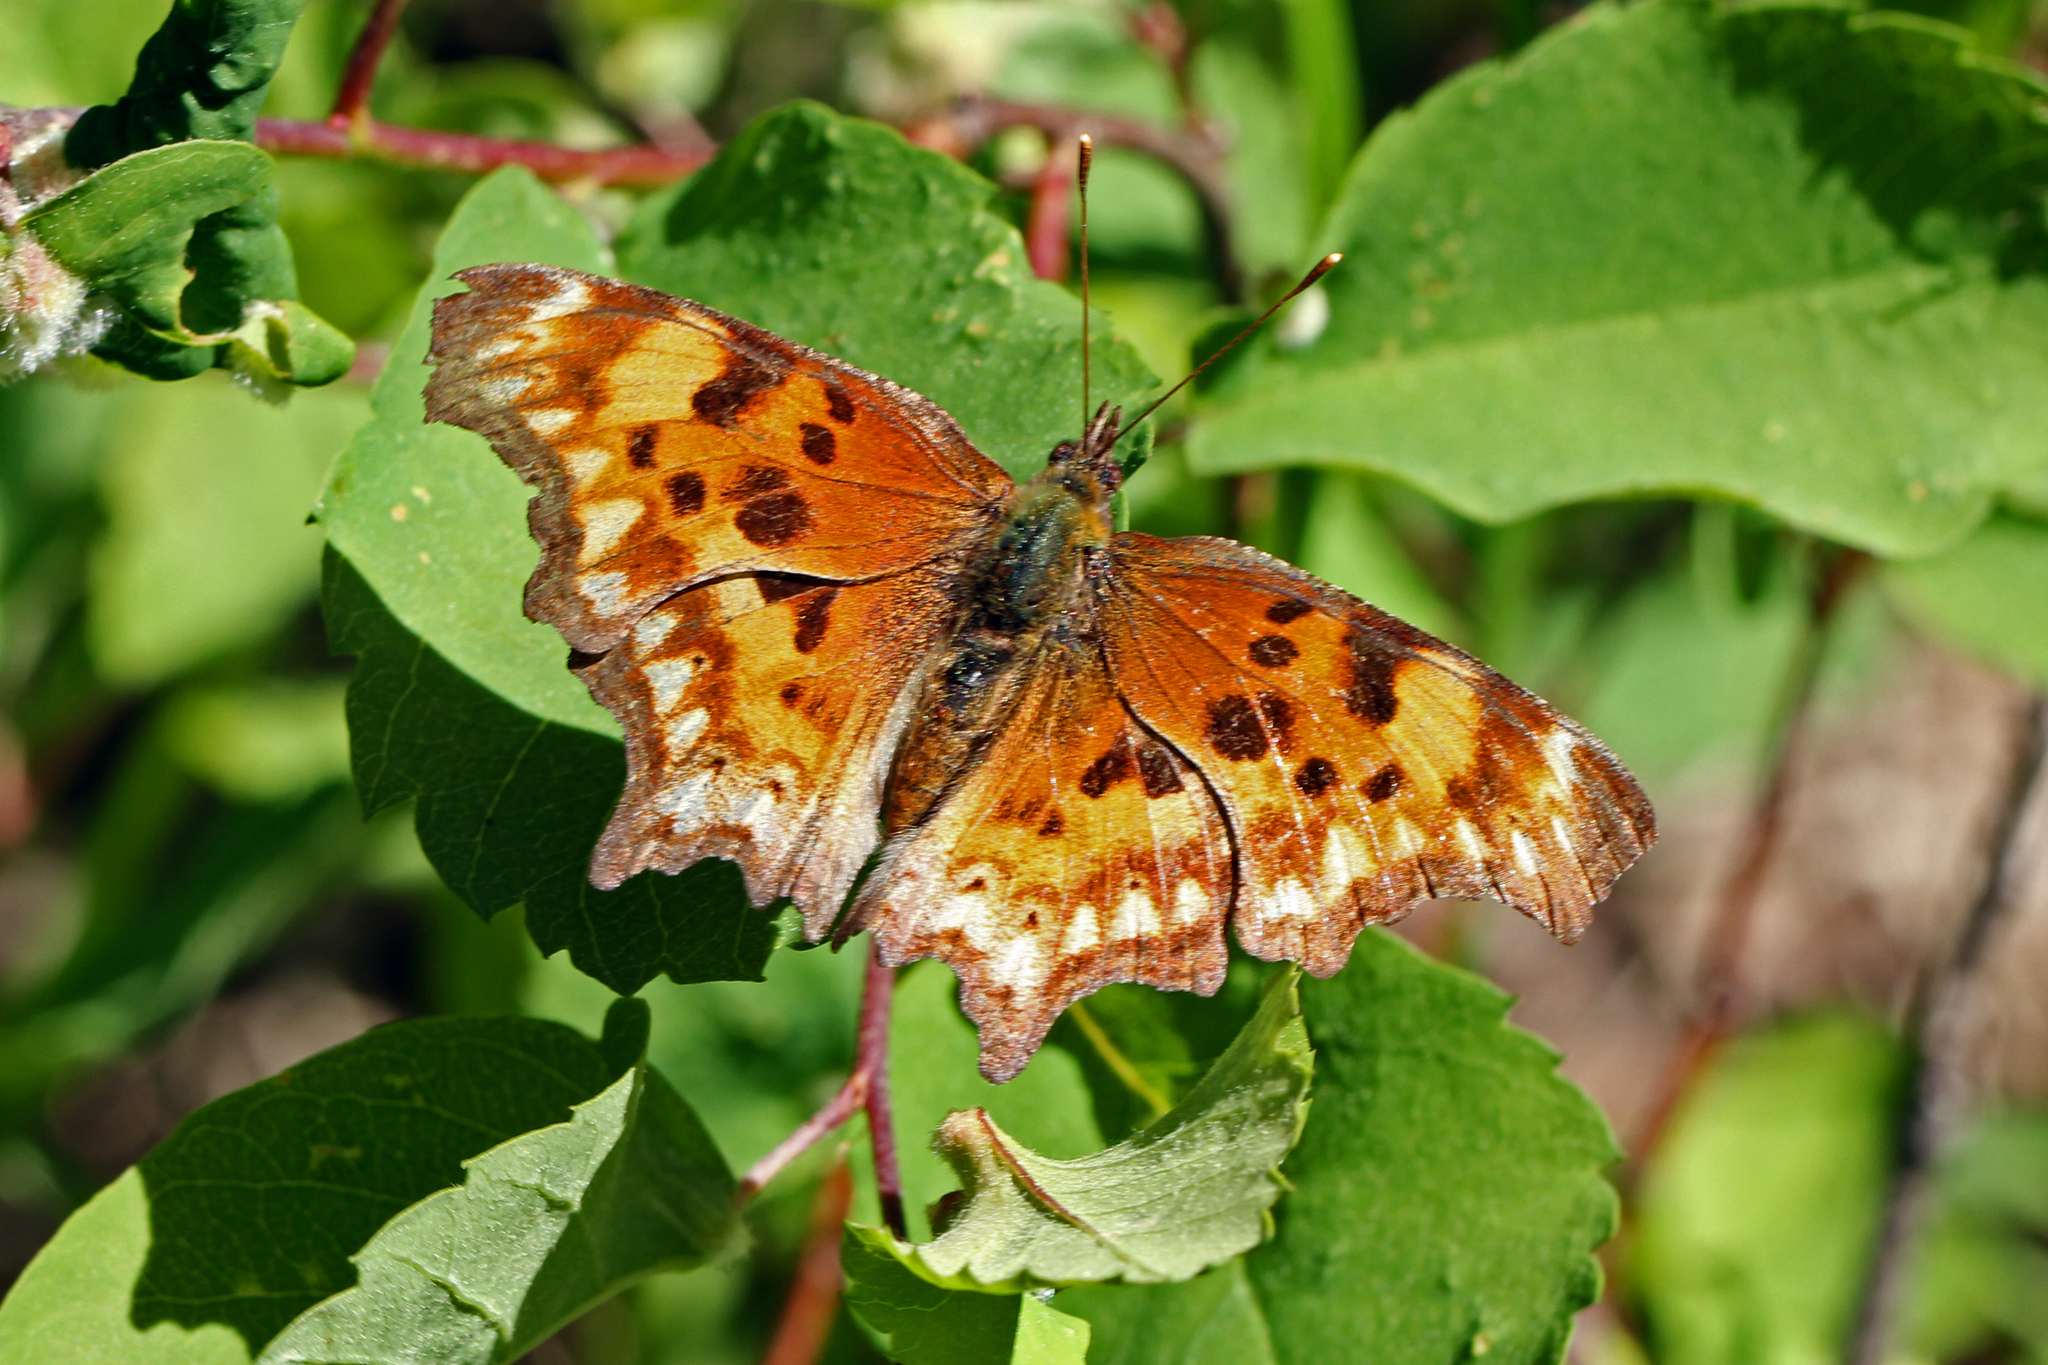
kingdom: Animalia
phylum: Arthropoda
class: Insecta
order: Lepidoptera
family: Nymphalidae
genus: Polygonia
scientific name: Polygonia oreas
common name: Oreas comma
